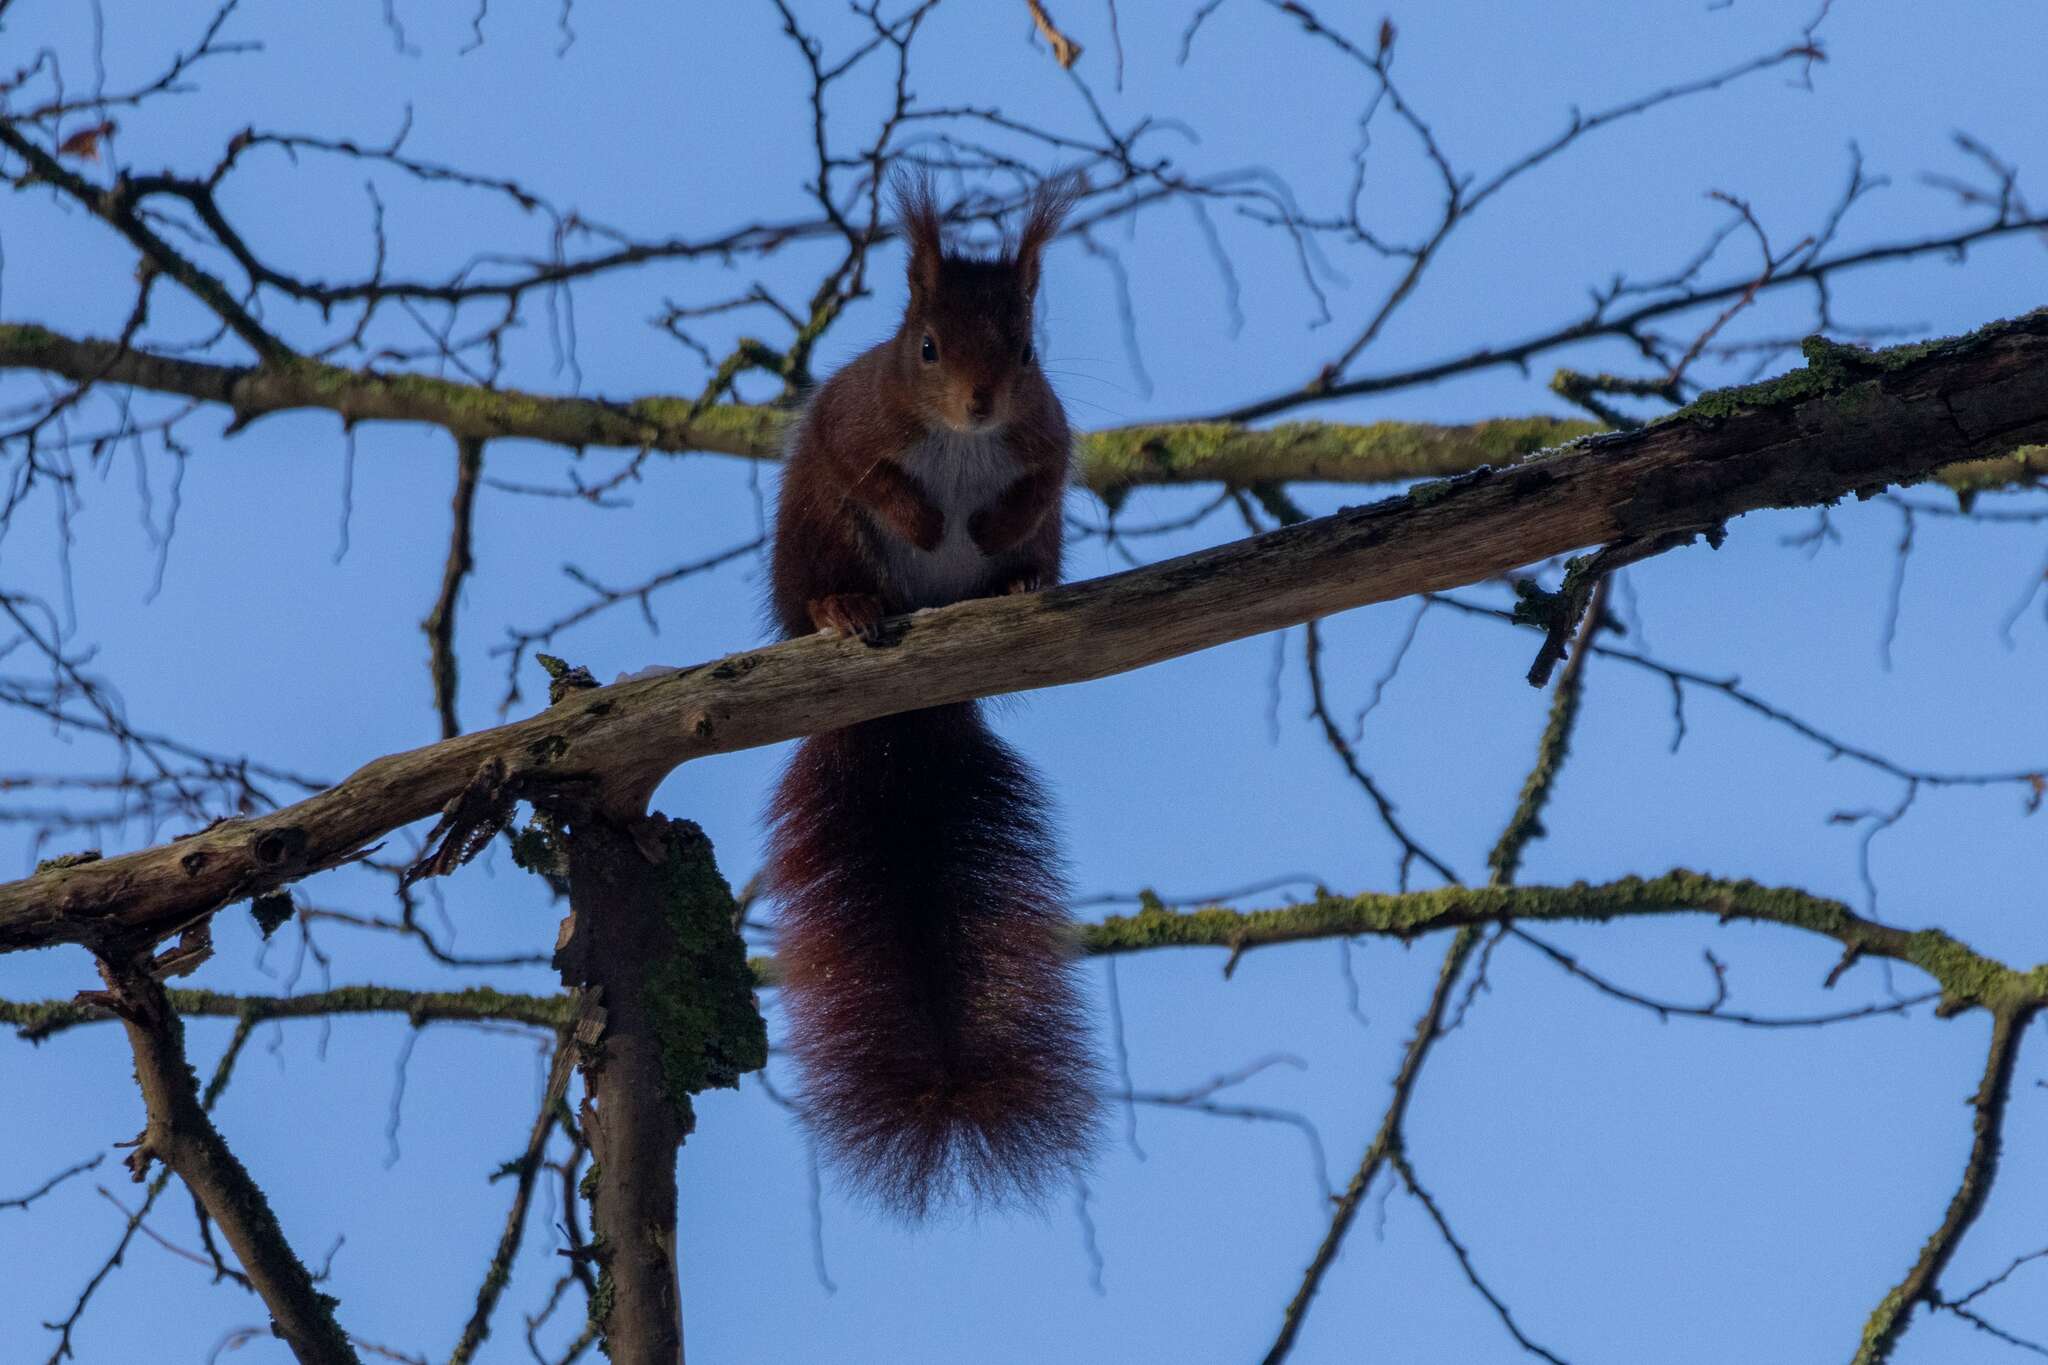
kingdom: Animalia
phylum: Chordata
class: Mammalia
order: Rodentia
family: Sciuridae
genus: Sciurus
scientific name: Sciurus vulgaris
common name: Eurasian red squirrel
